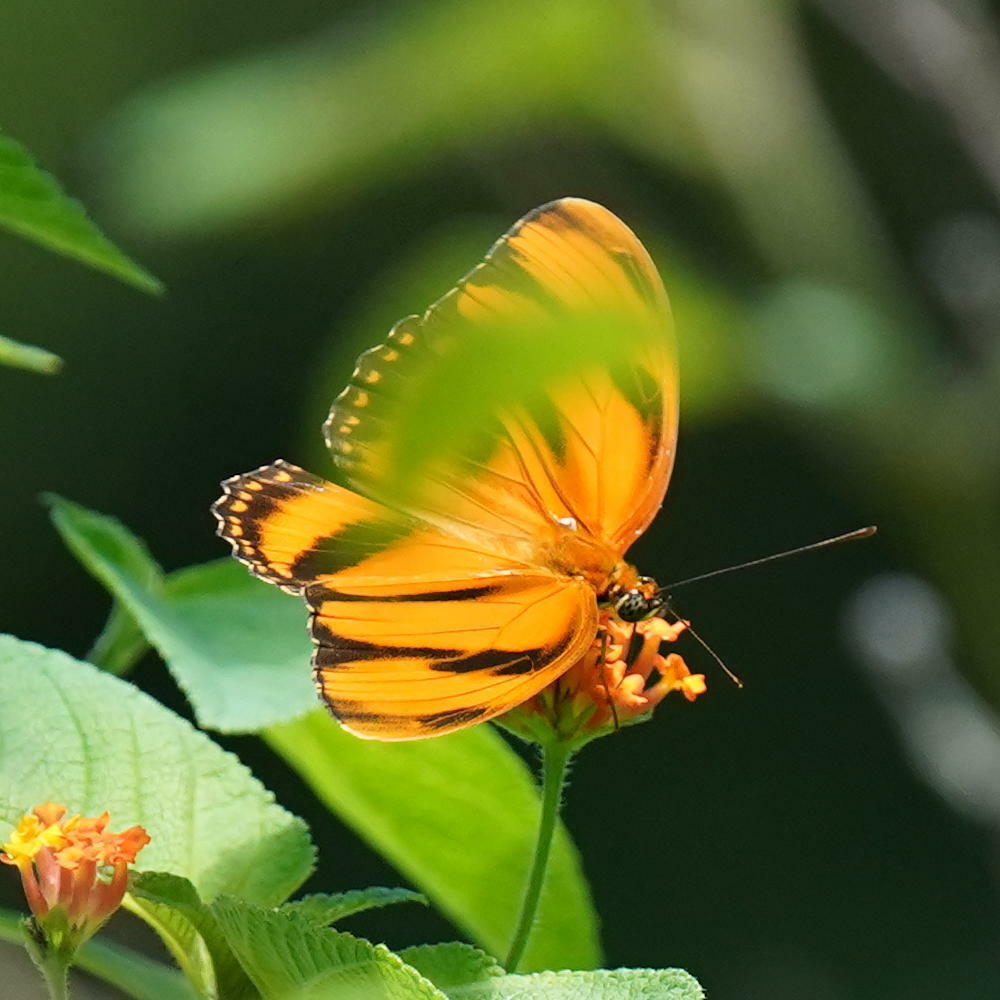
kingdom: Animalia
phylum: Arthropoda
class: Insecta
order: Lepidoptera
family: Nymphalidae
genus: Dryadula
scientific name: Dryadula phaetusa
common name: Banded orange heliconian
